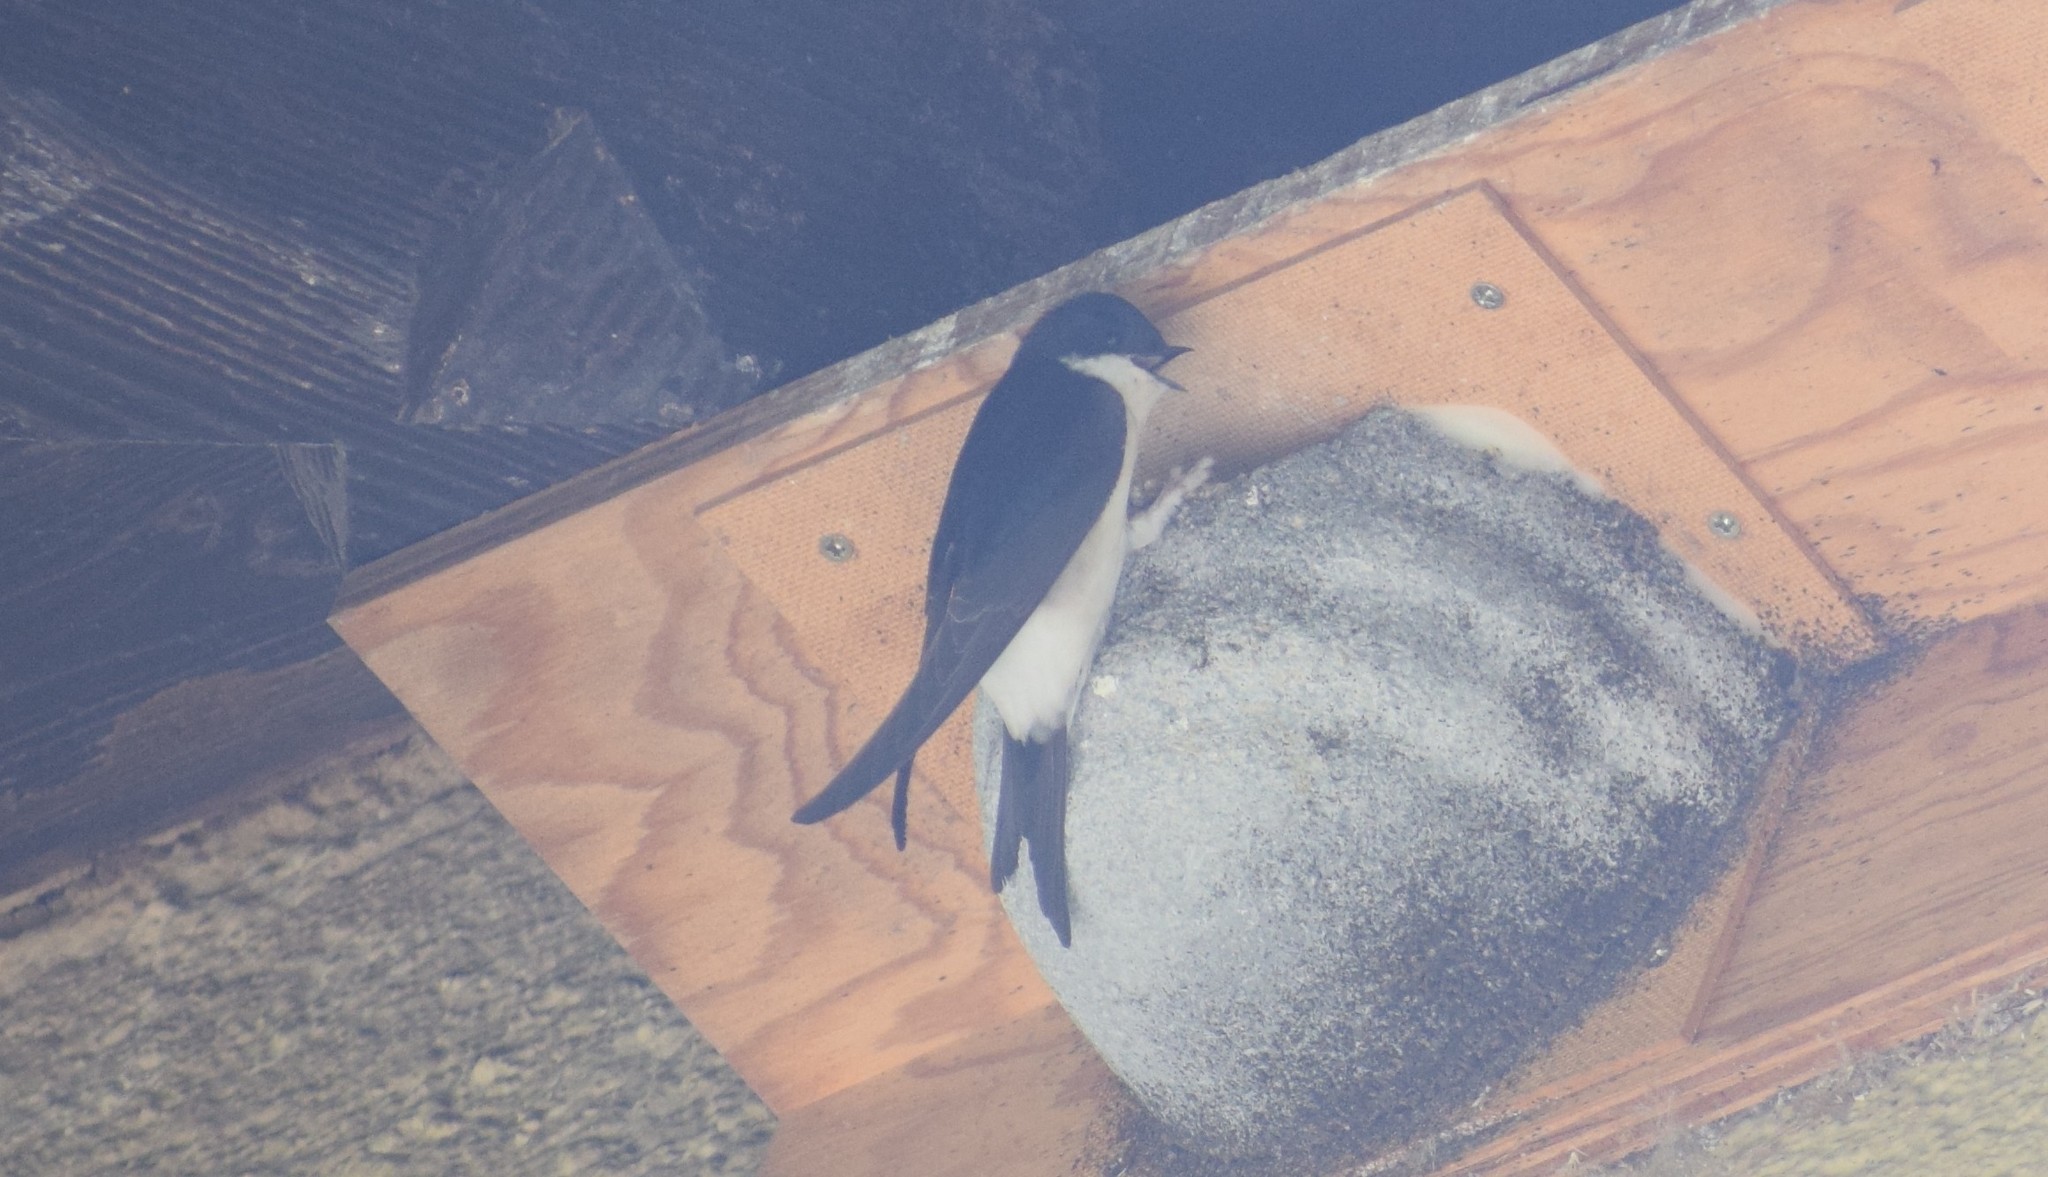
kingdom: Animalia
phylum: Chordata
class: Aves
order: Passeriformes
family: Hirundinidae
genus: Delichon
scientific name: Delichon urbicum
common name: Common house martin
